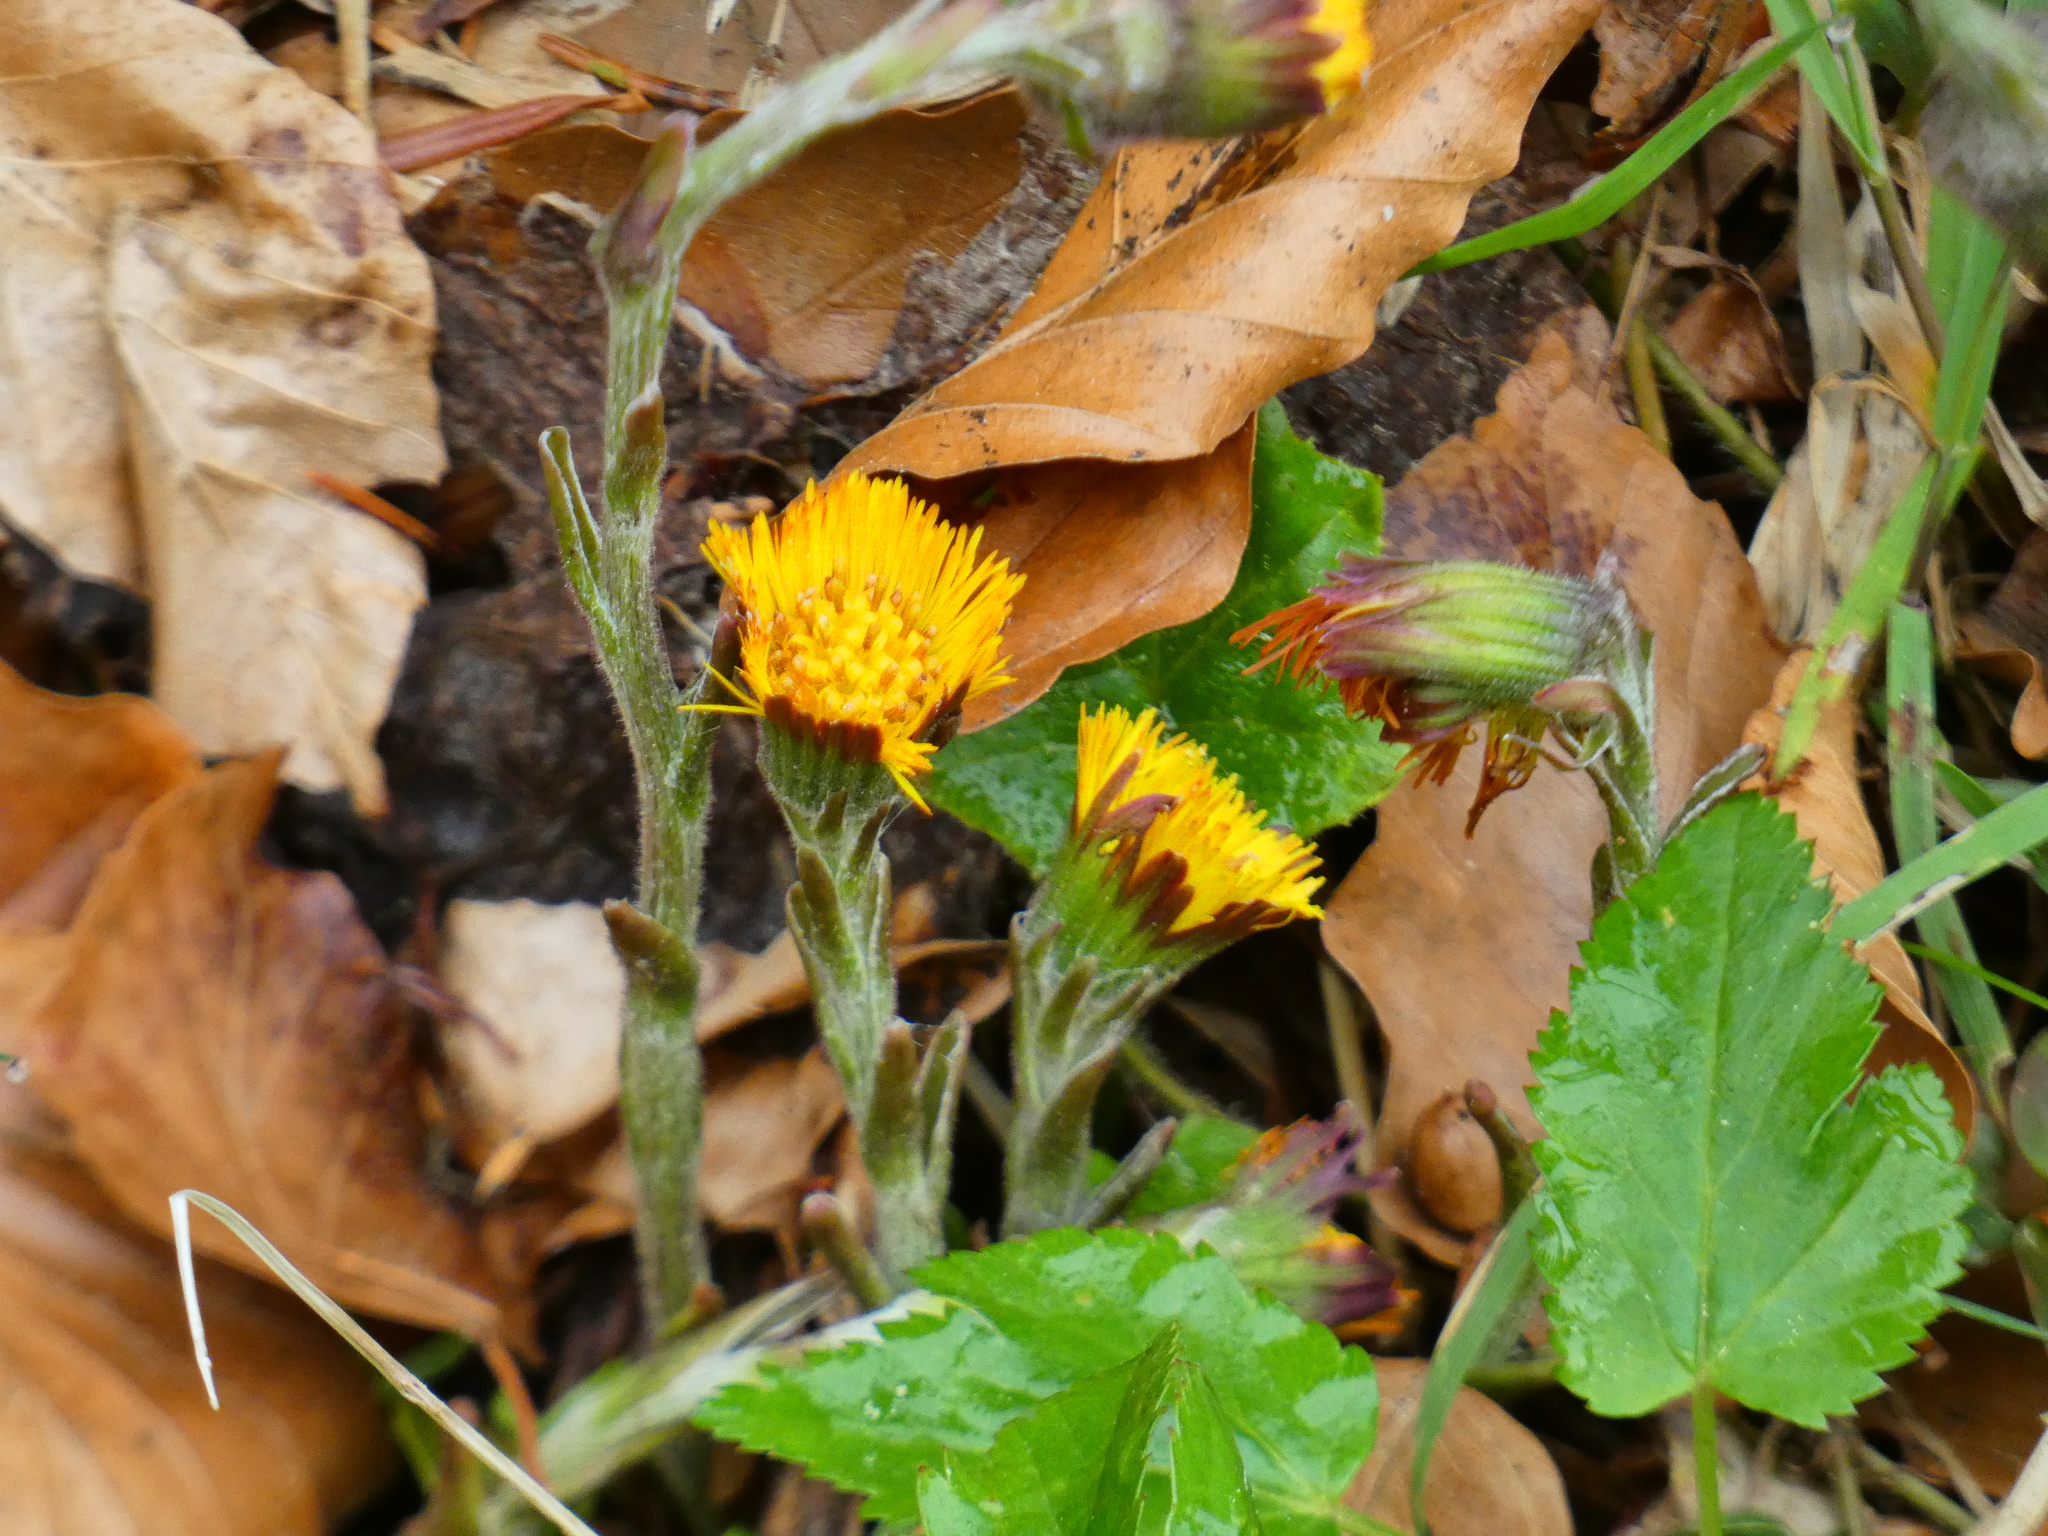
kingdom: Plantae
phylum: Tracheophyta
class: Magnoliopsida
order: Asterales
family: Asteraceae
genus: Tussilago
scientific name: Tussilago farfara
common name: Coltsfoot
